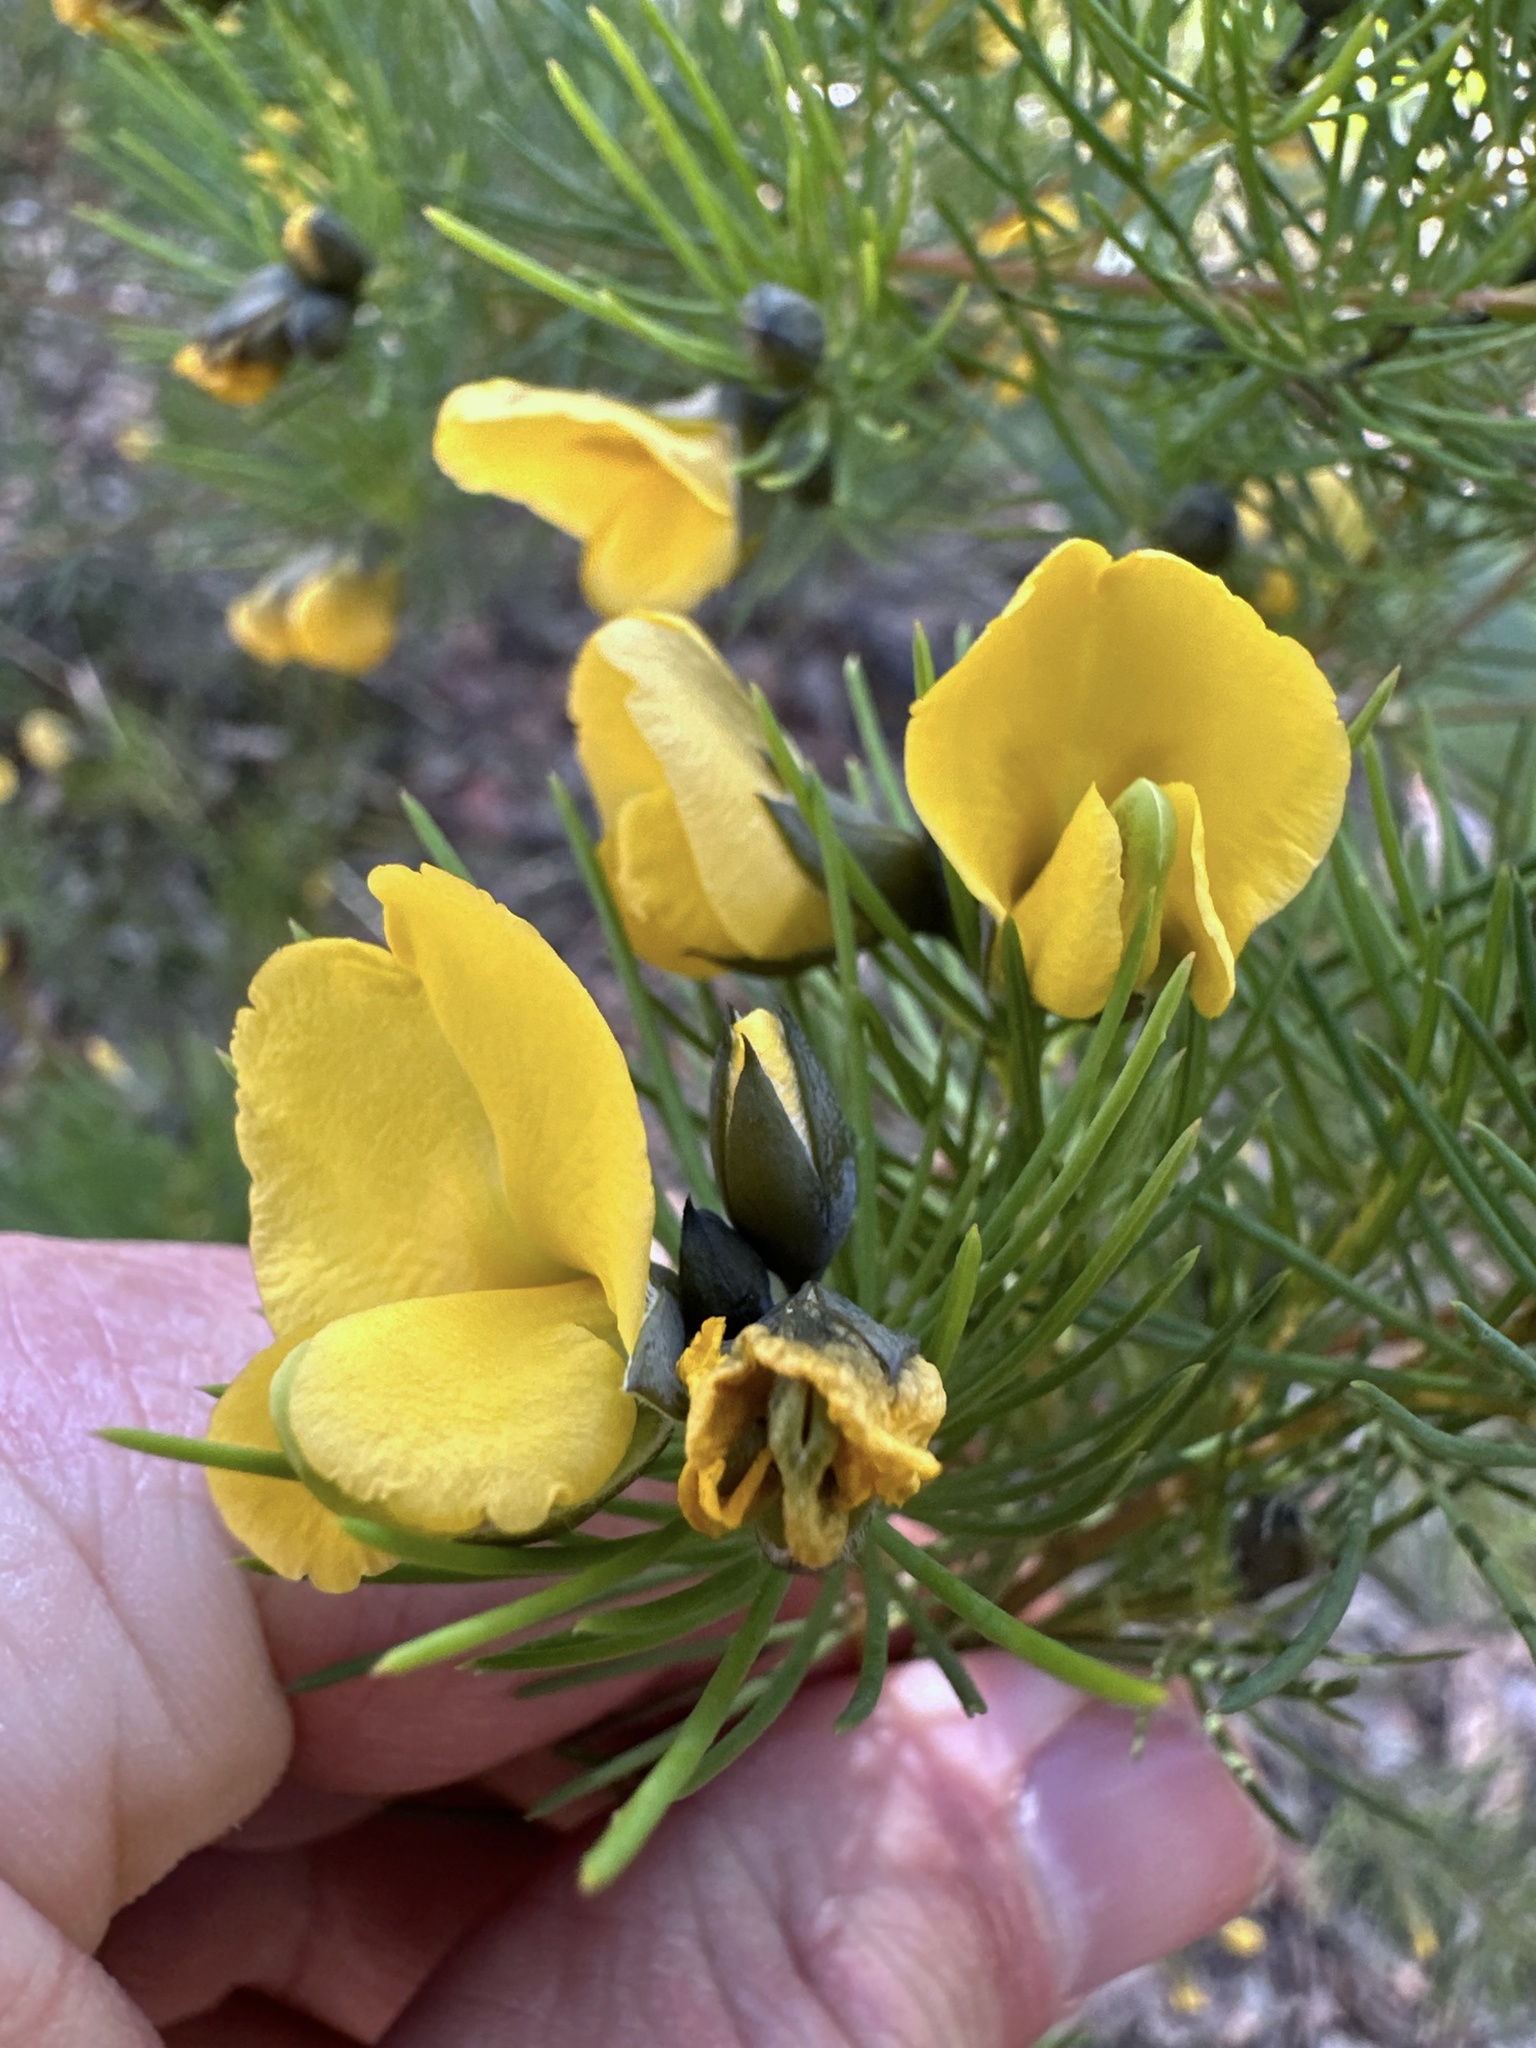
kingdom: Plantae
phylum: Tracheophyta
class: Magnoliopsida
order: Fabales
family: Fabaceae
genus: Gompholobium
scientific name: Gompholobium grandiflorum
